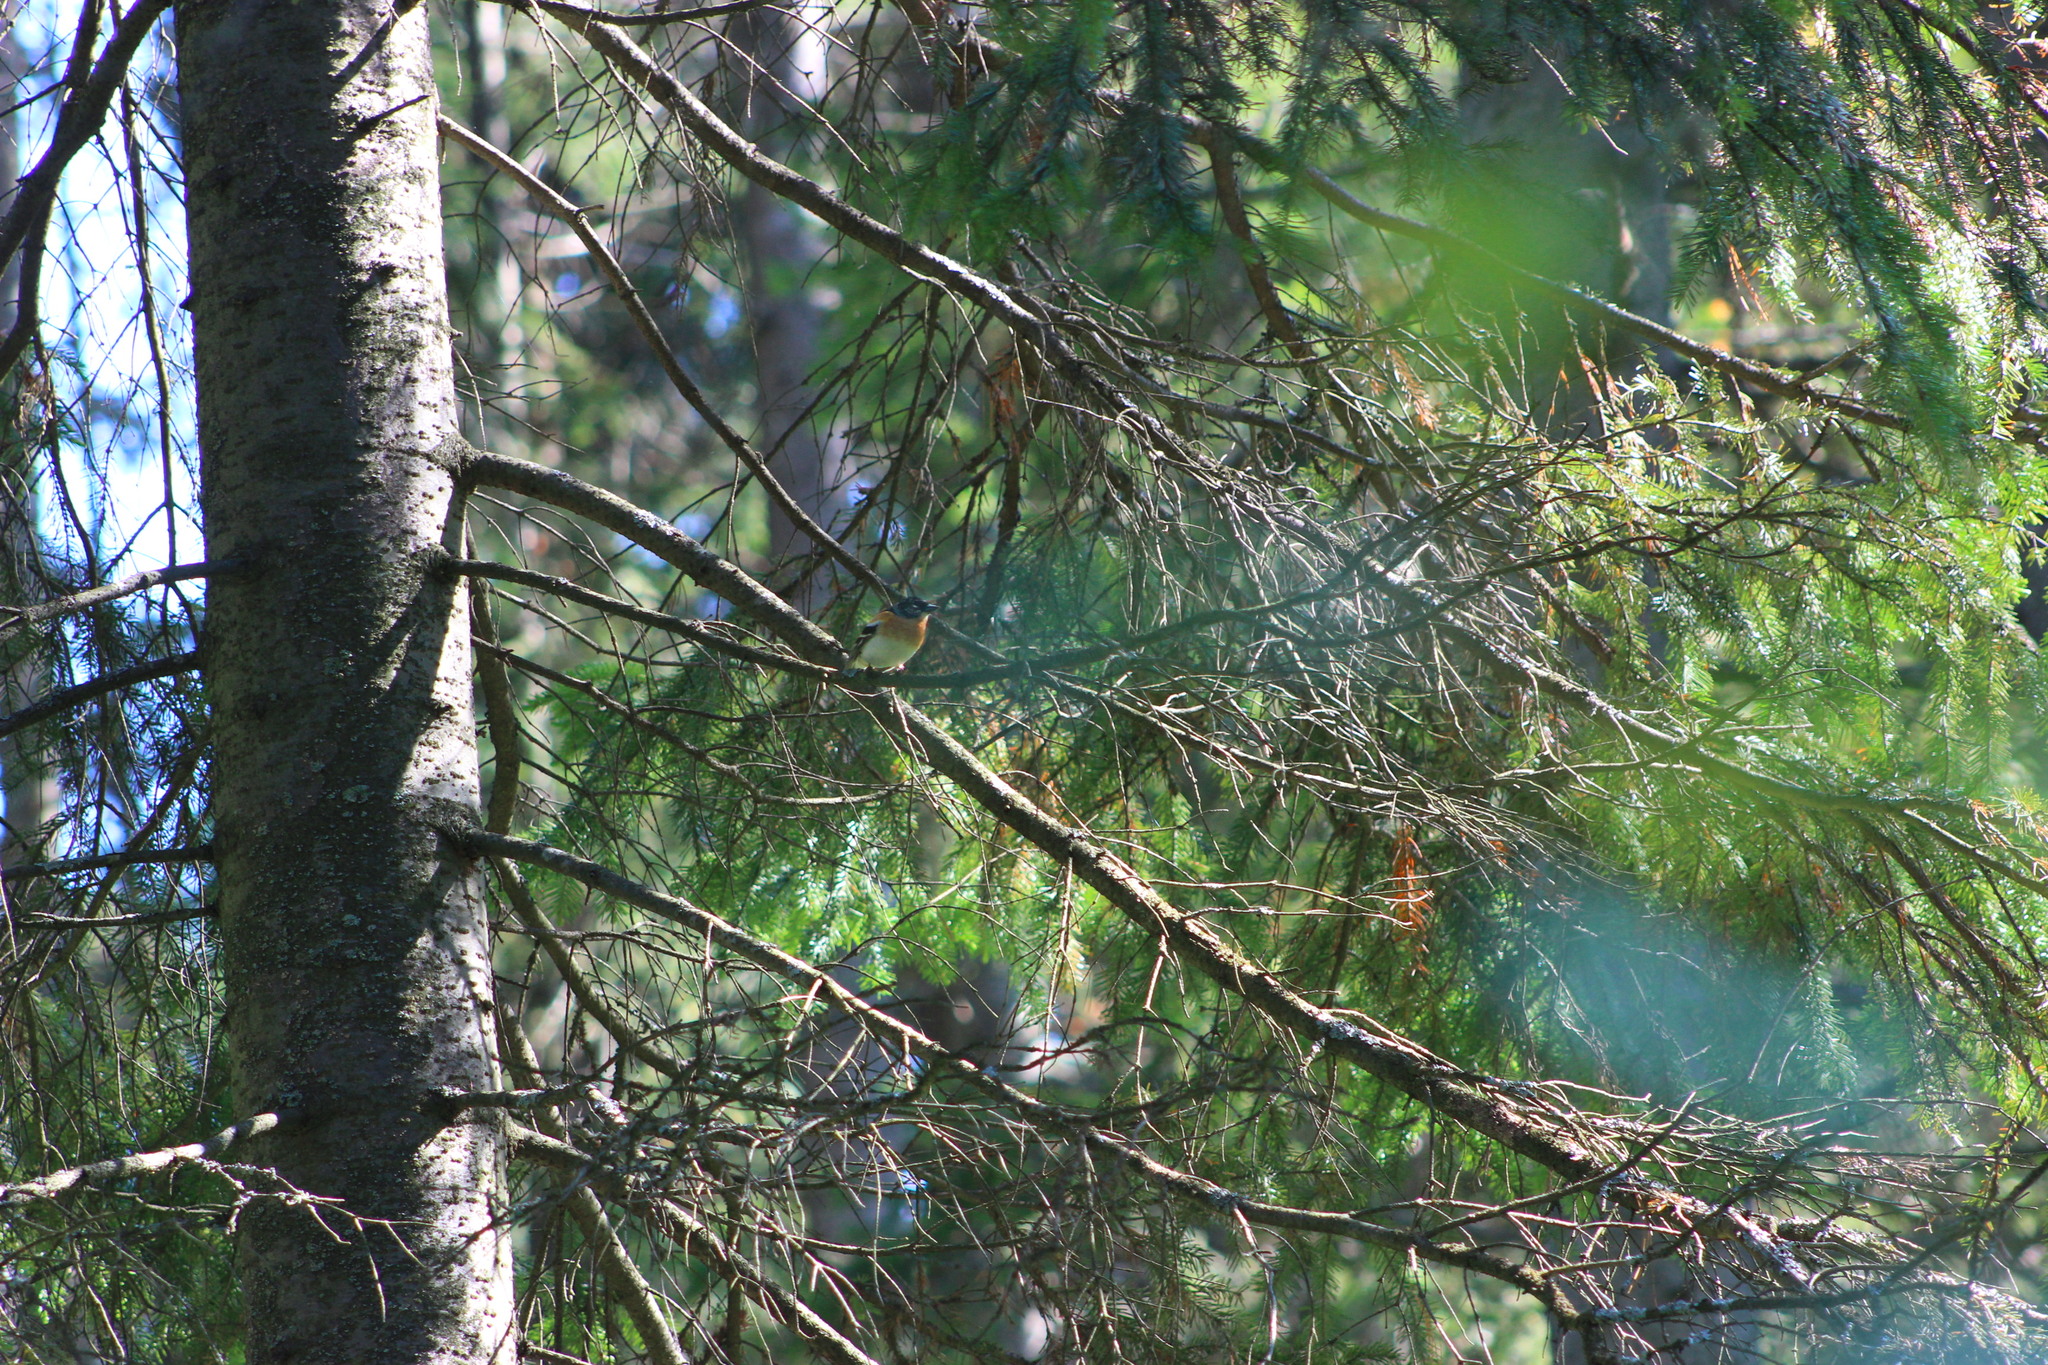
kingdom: Animalia
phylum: Chordata
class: Aves
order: Passeriformes
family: Fringillidae
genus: Fringilla
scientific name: Fringilla montifringilla
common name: Brambling
